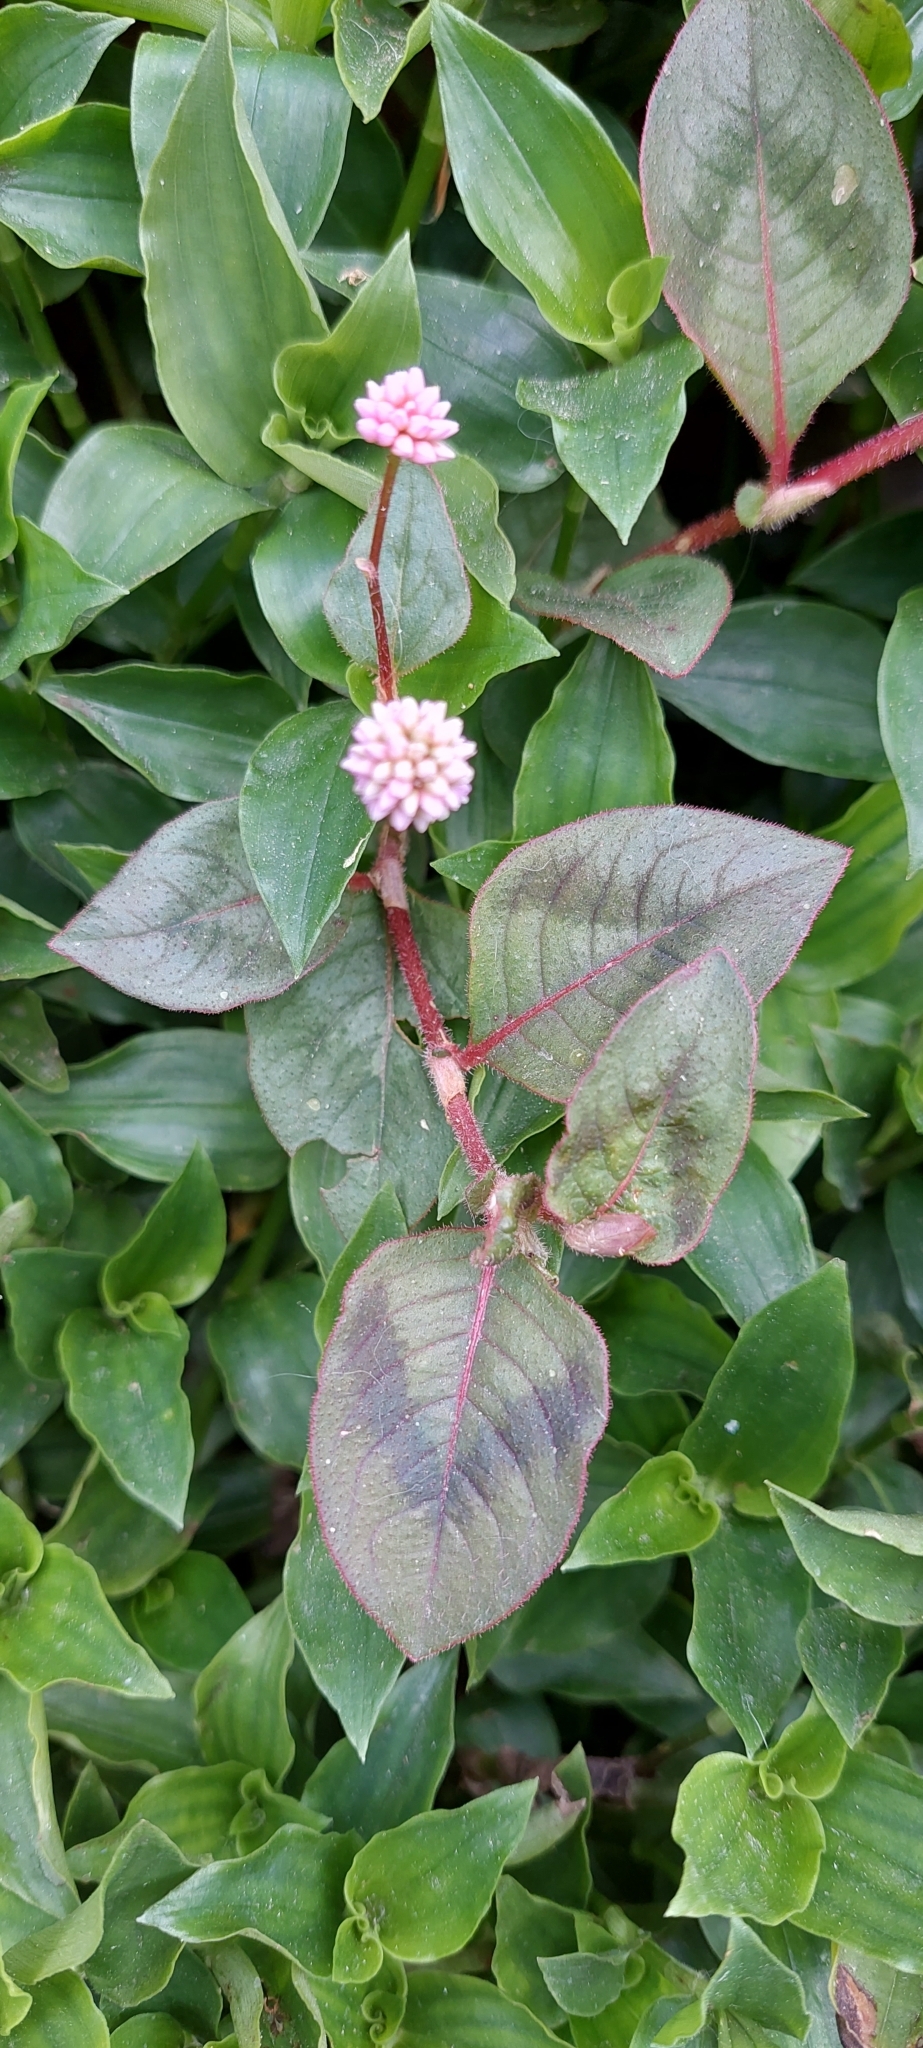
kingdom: Plantae
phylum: Tracheophyta
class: Magnoliopsida
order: Caryophyllales
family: Polygonaceae
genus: Persicaria
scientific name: Persicaria capitata
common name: Pinkhead smartweed
